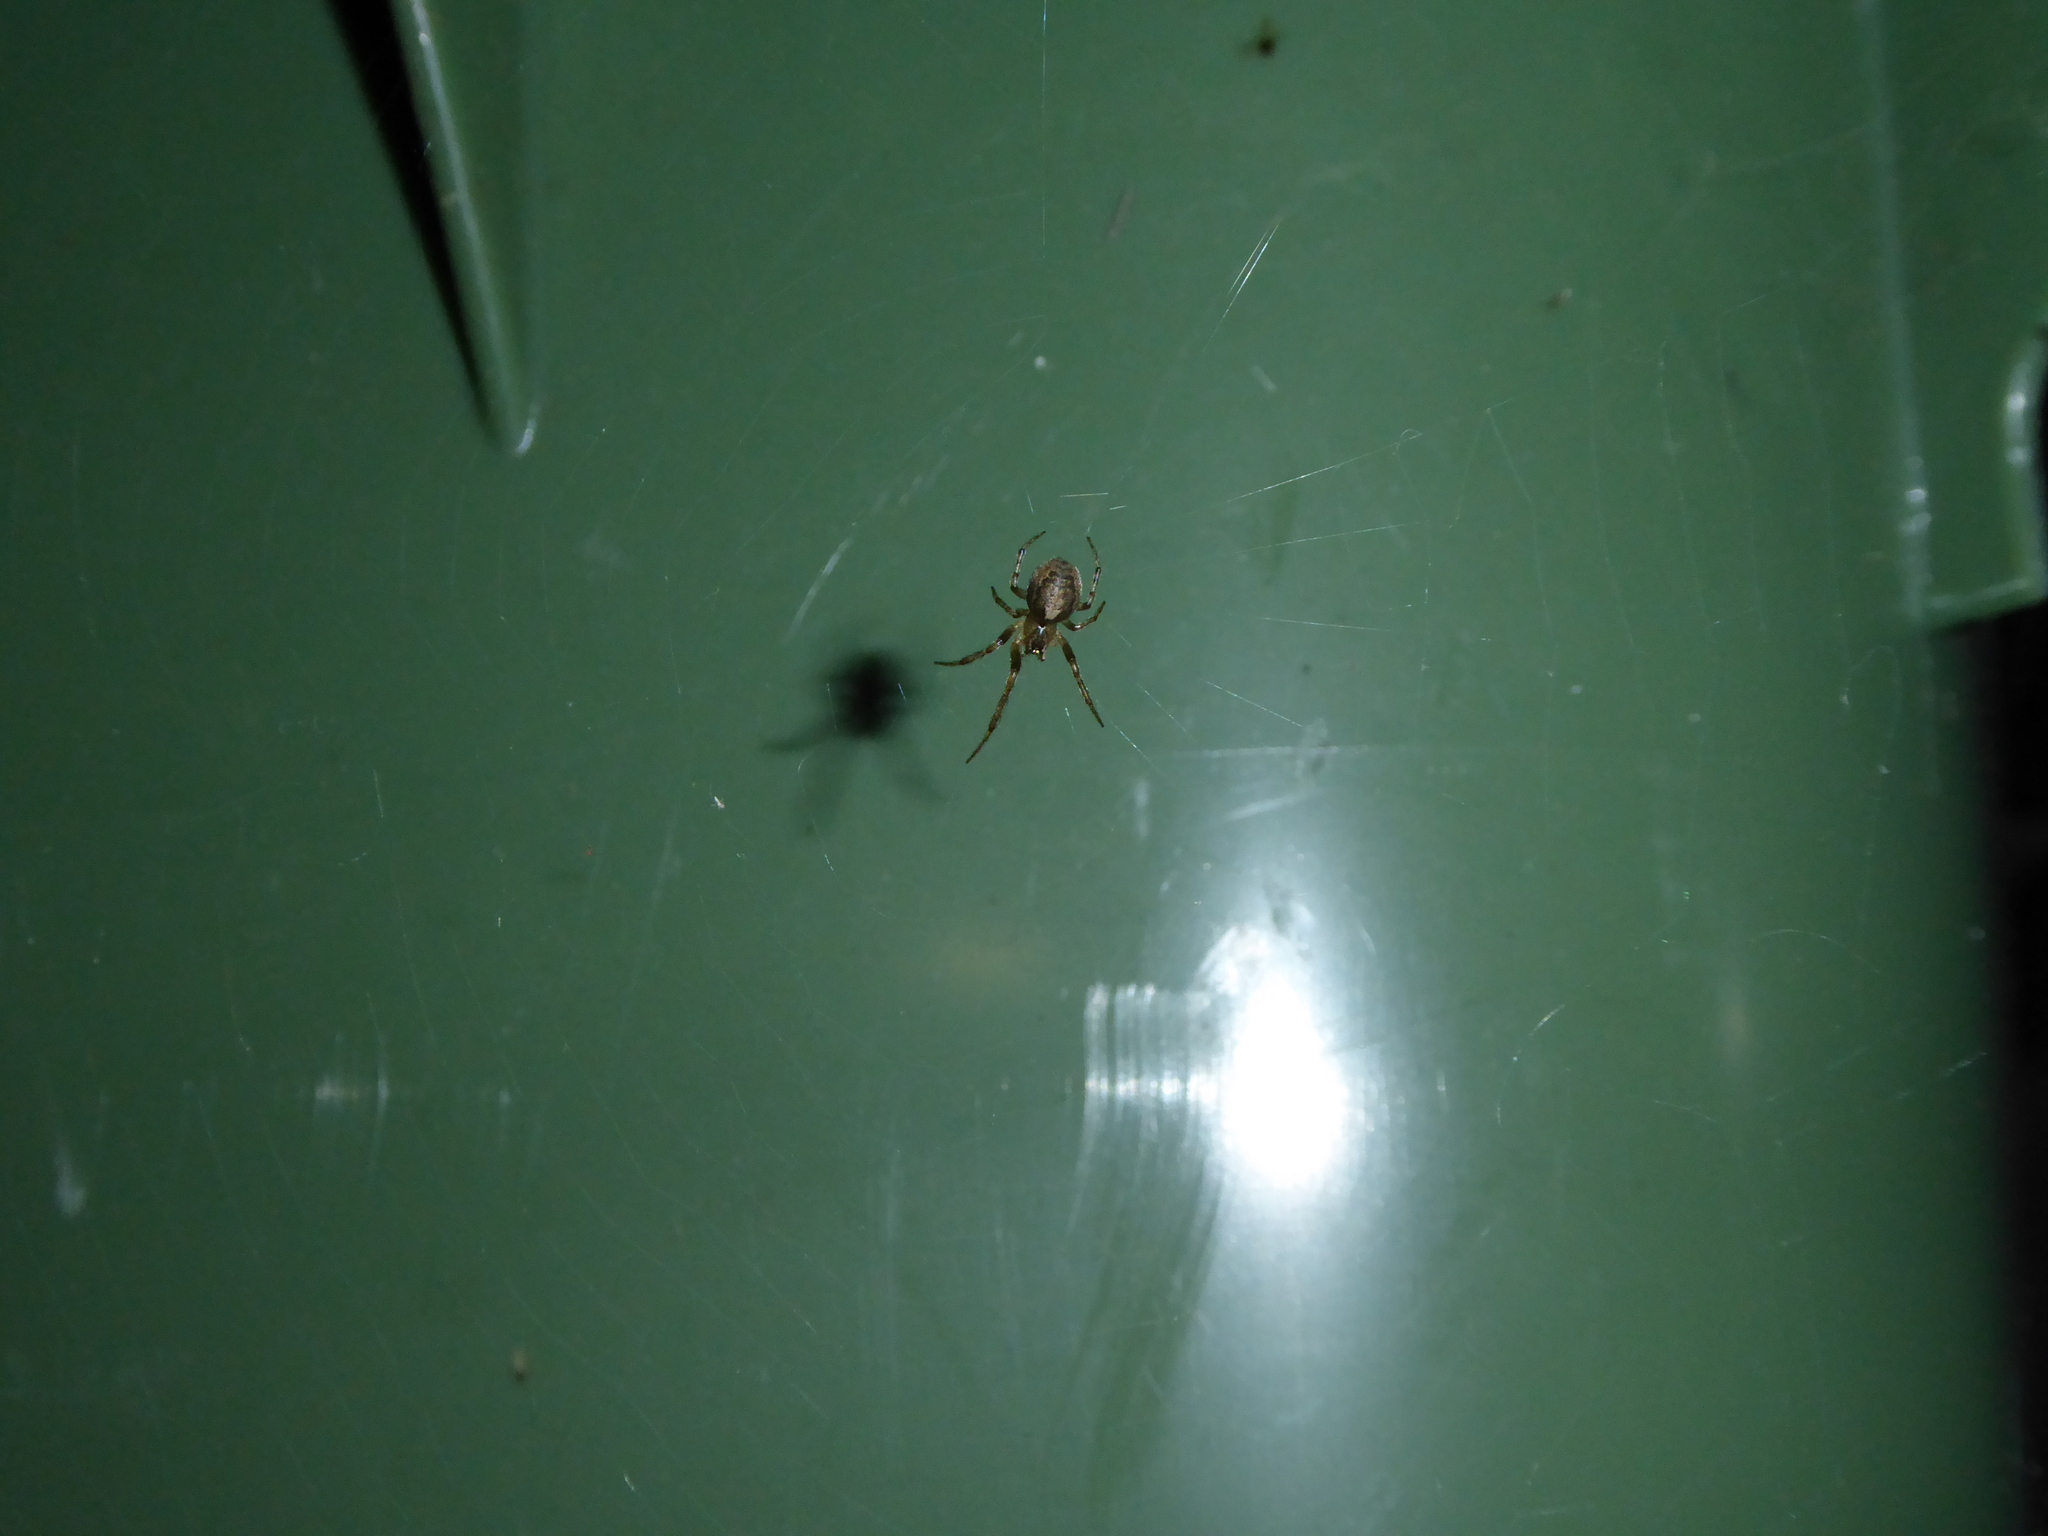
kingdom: Animalia
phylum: Arthropoda
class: Arachnida
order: Araneae
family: Araneidae
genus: Zygiella
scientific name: Zygiella x-notata
